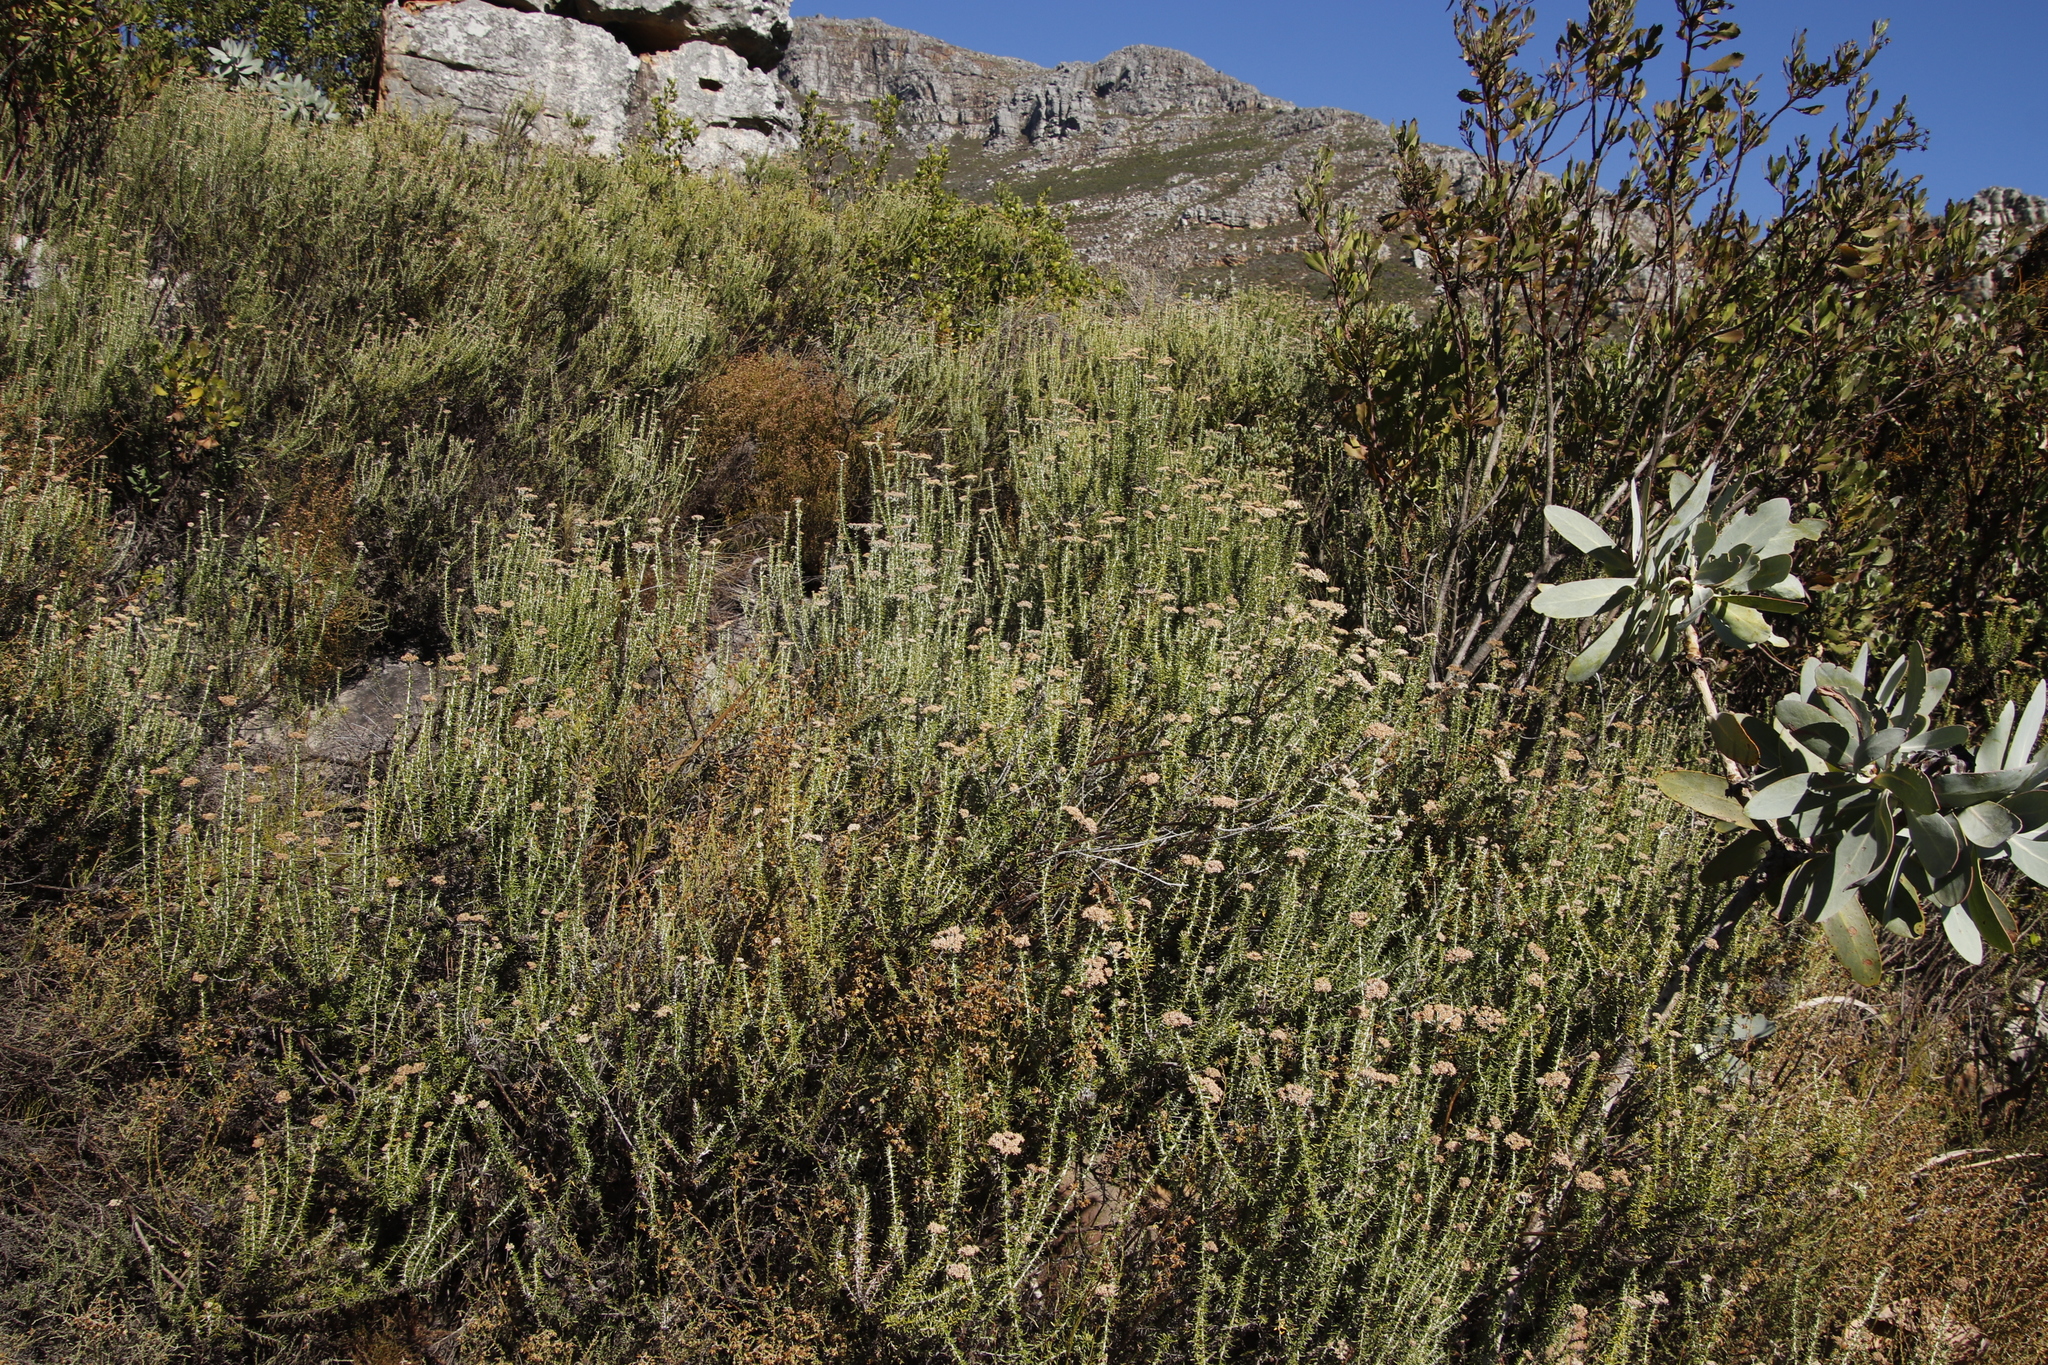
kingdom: Plantae
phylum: Tracheophyta
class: Magnoliopsida
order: Asterales
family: Asteraceae
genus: Metalasia
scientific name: Metalasia densa
